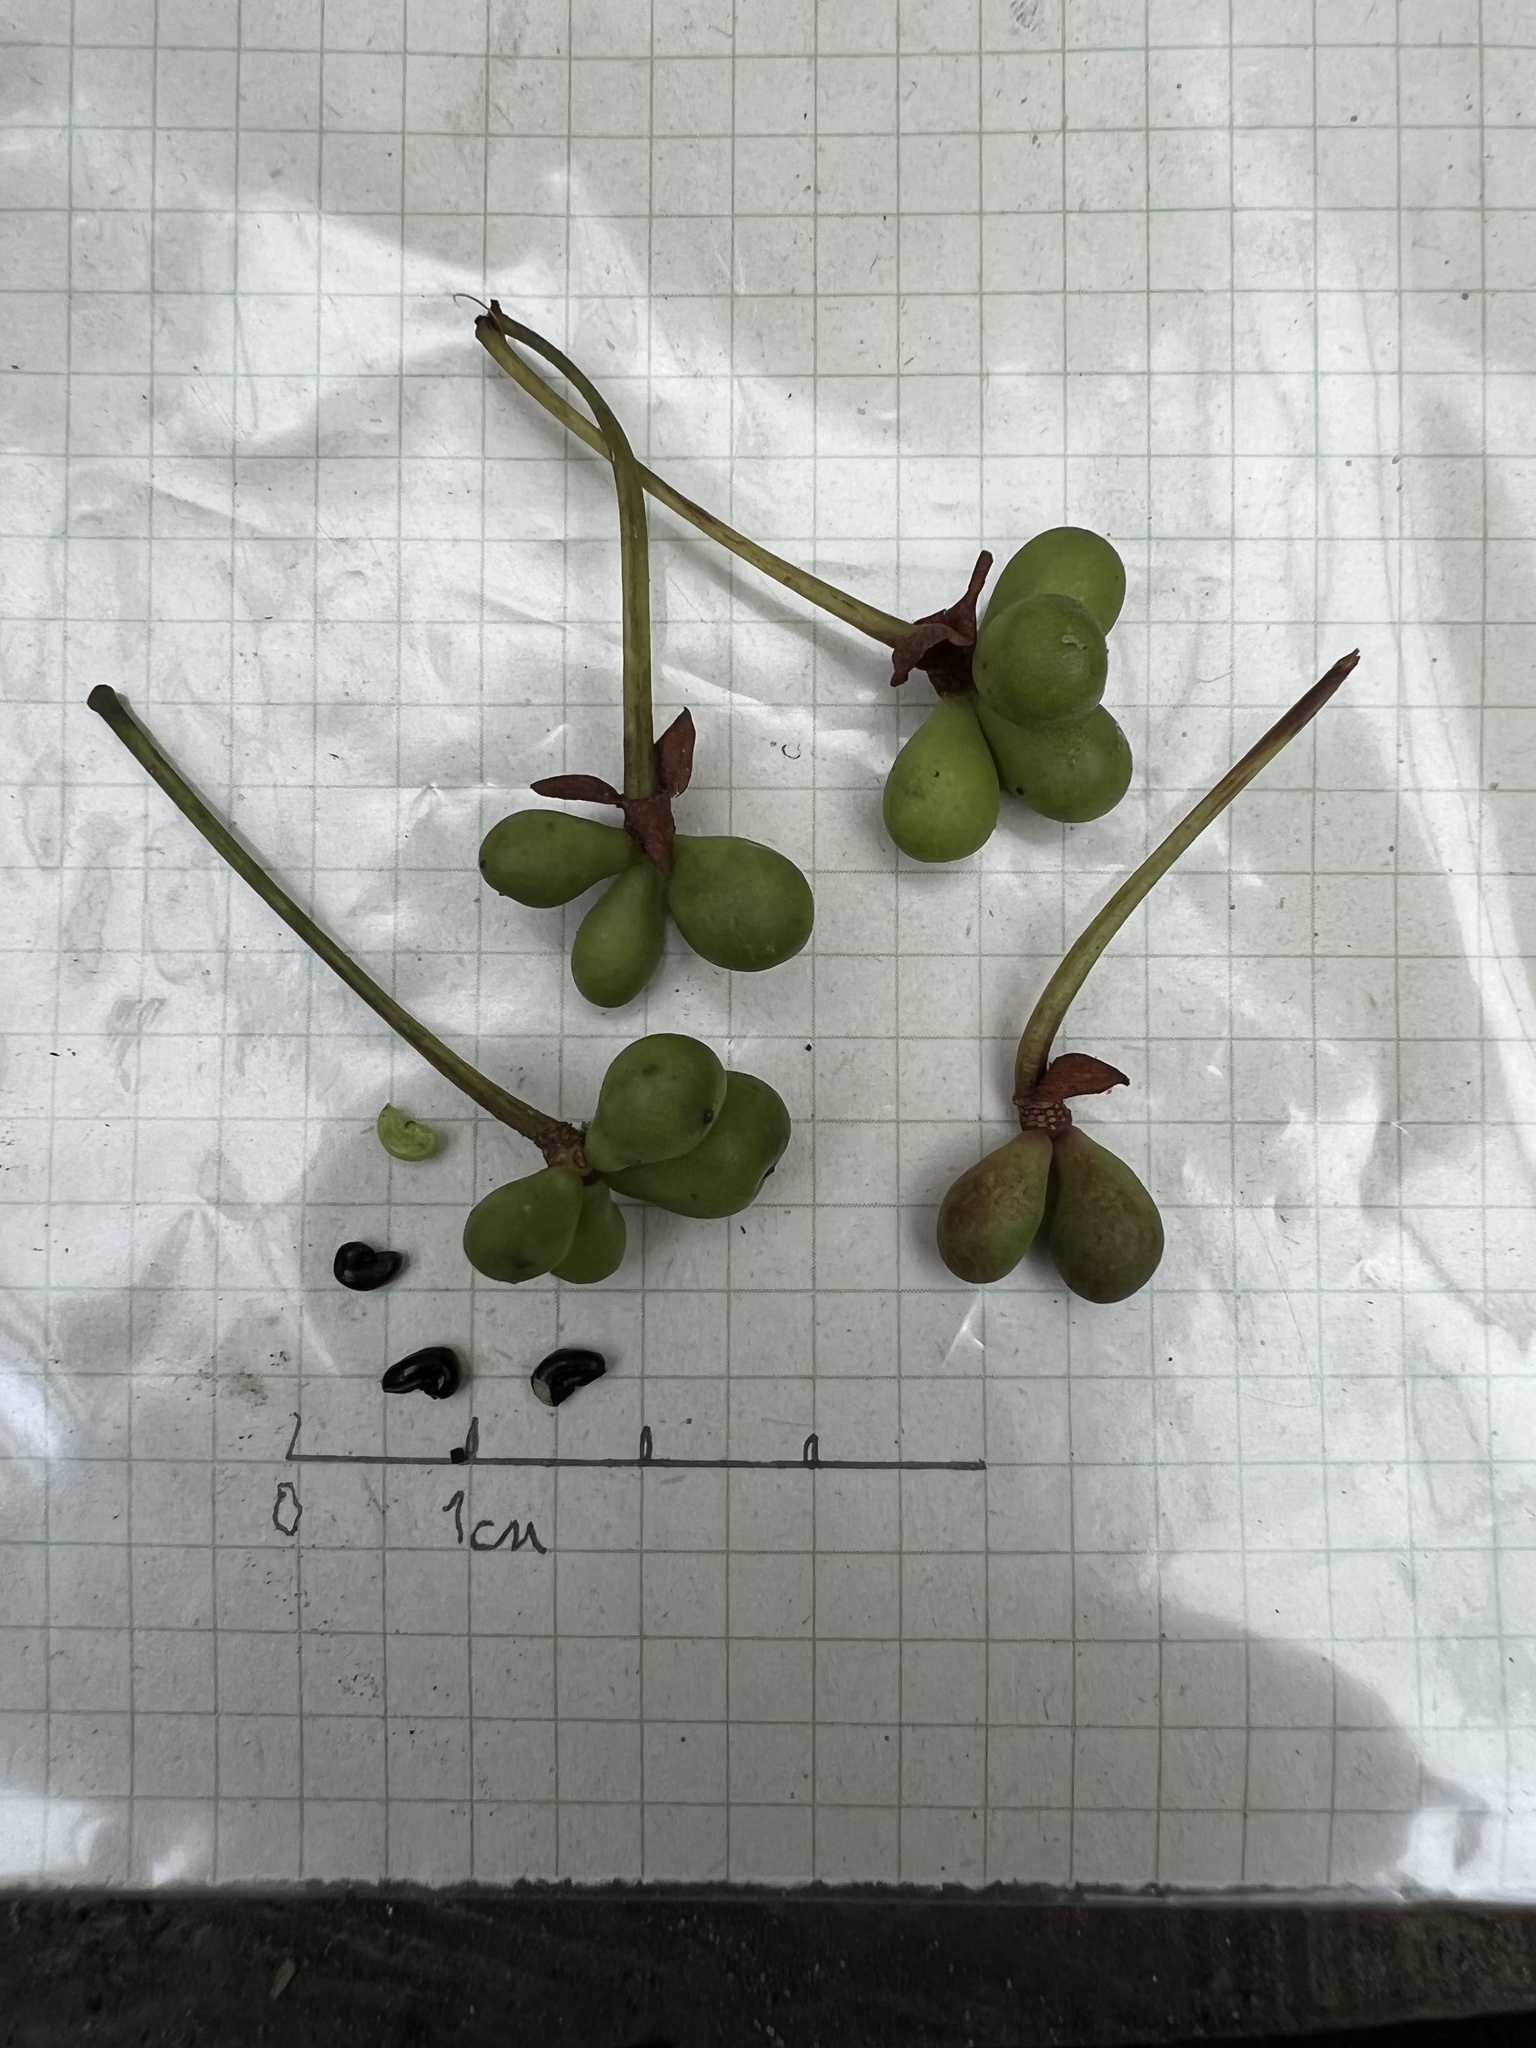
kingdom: Plantae
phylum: Tracheophyta
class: Magnoliopsida
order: Canellales
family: Winteraceae
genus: Drimys
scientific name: Drimys granadensis
